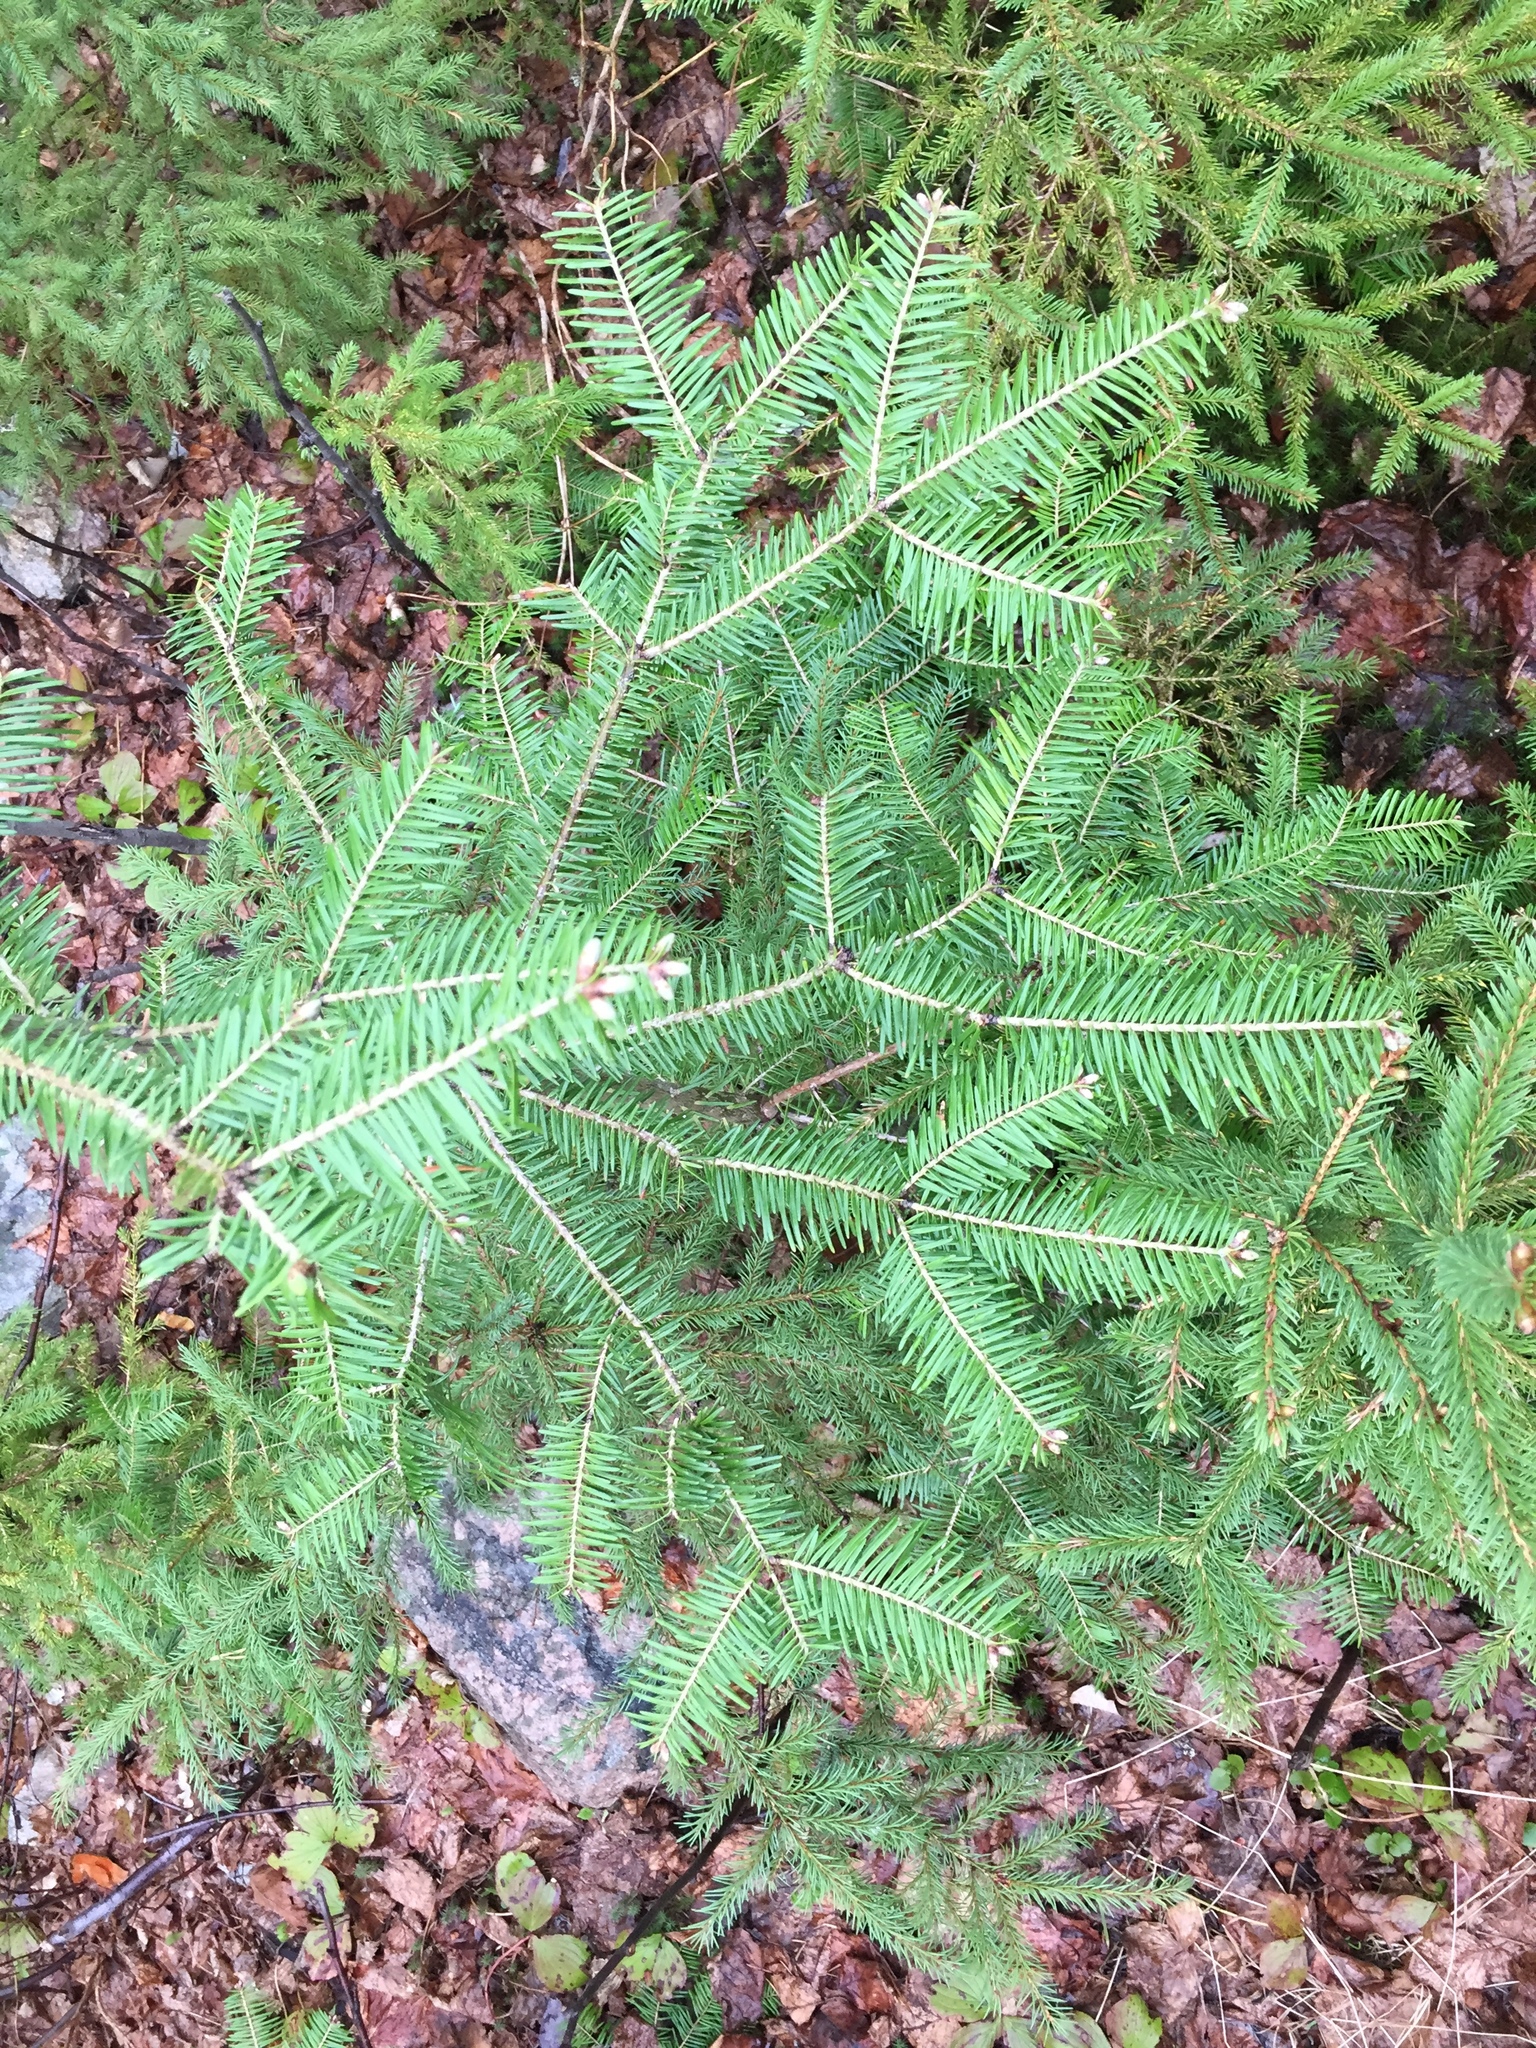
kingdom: Plantae
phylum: Tracheophyta
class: Pinopsida
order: Pinales
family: Pinaceae
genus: Abies
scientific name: Abies balsamea
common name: Balsam fir
